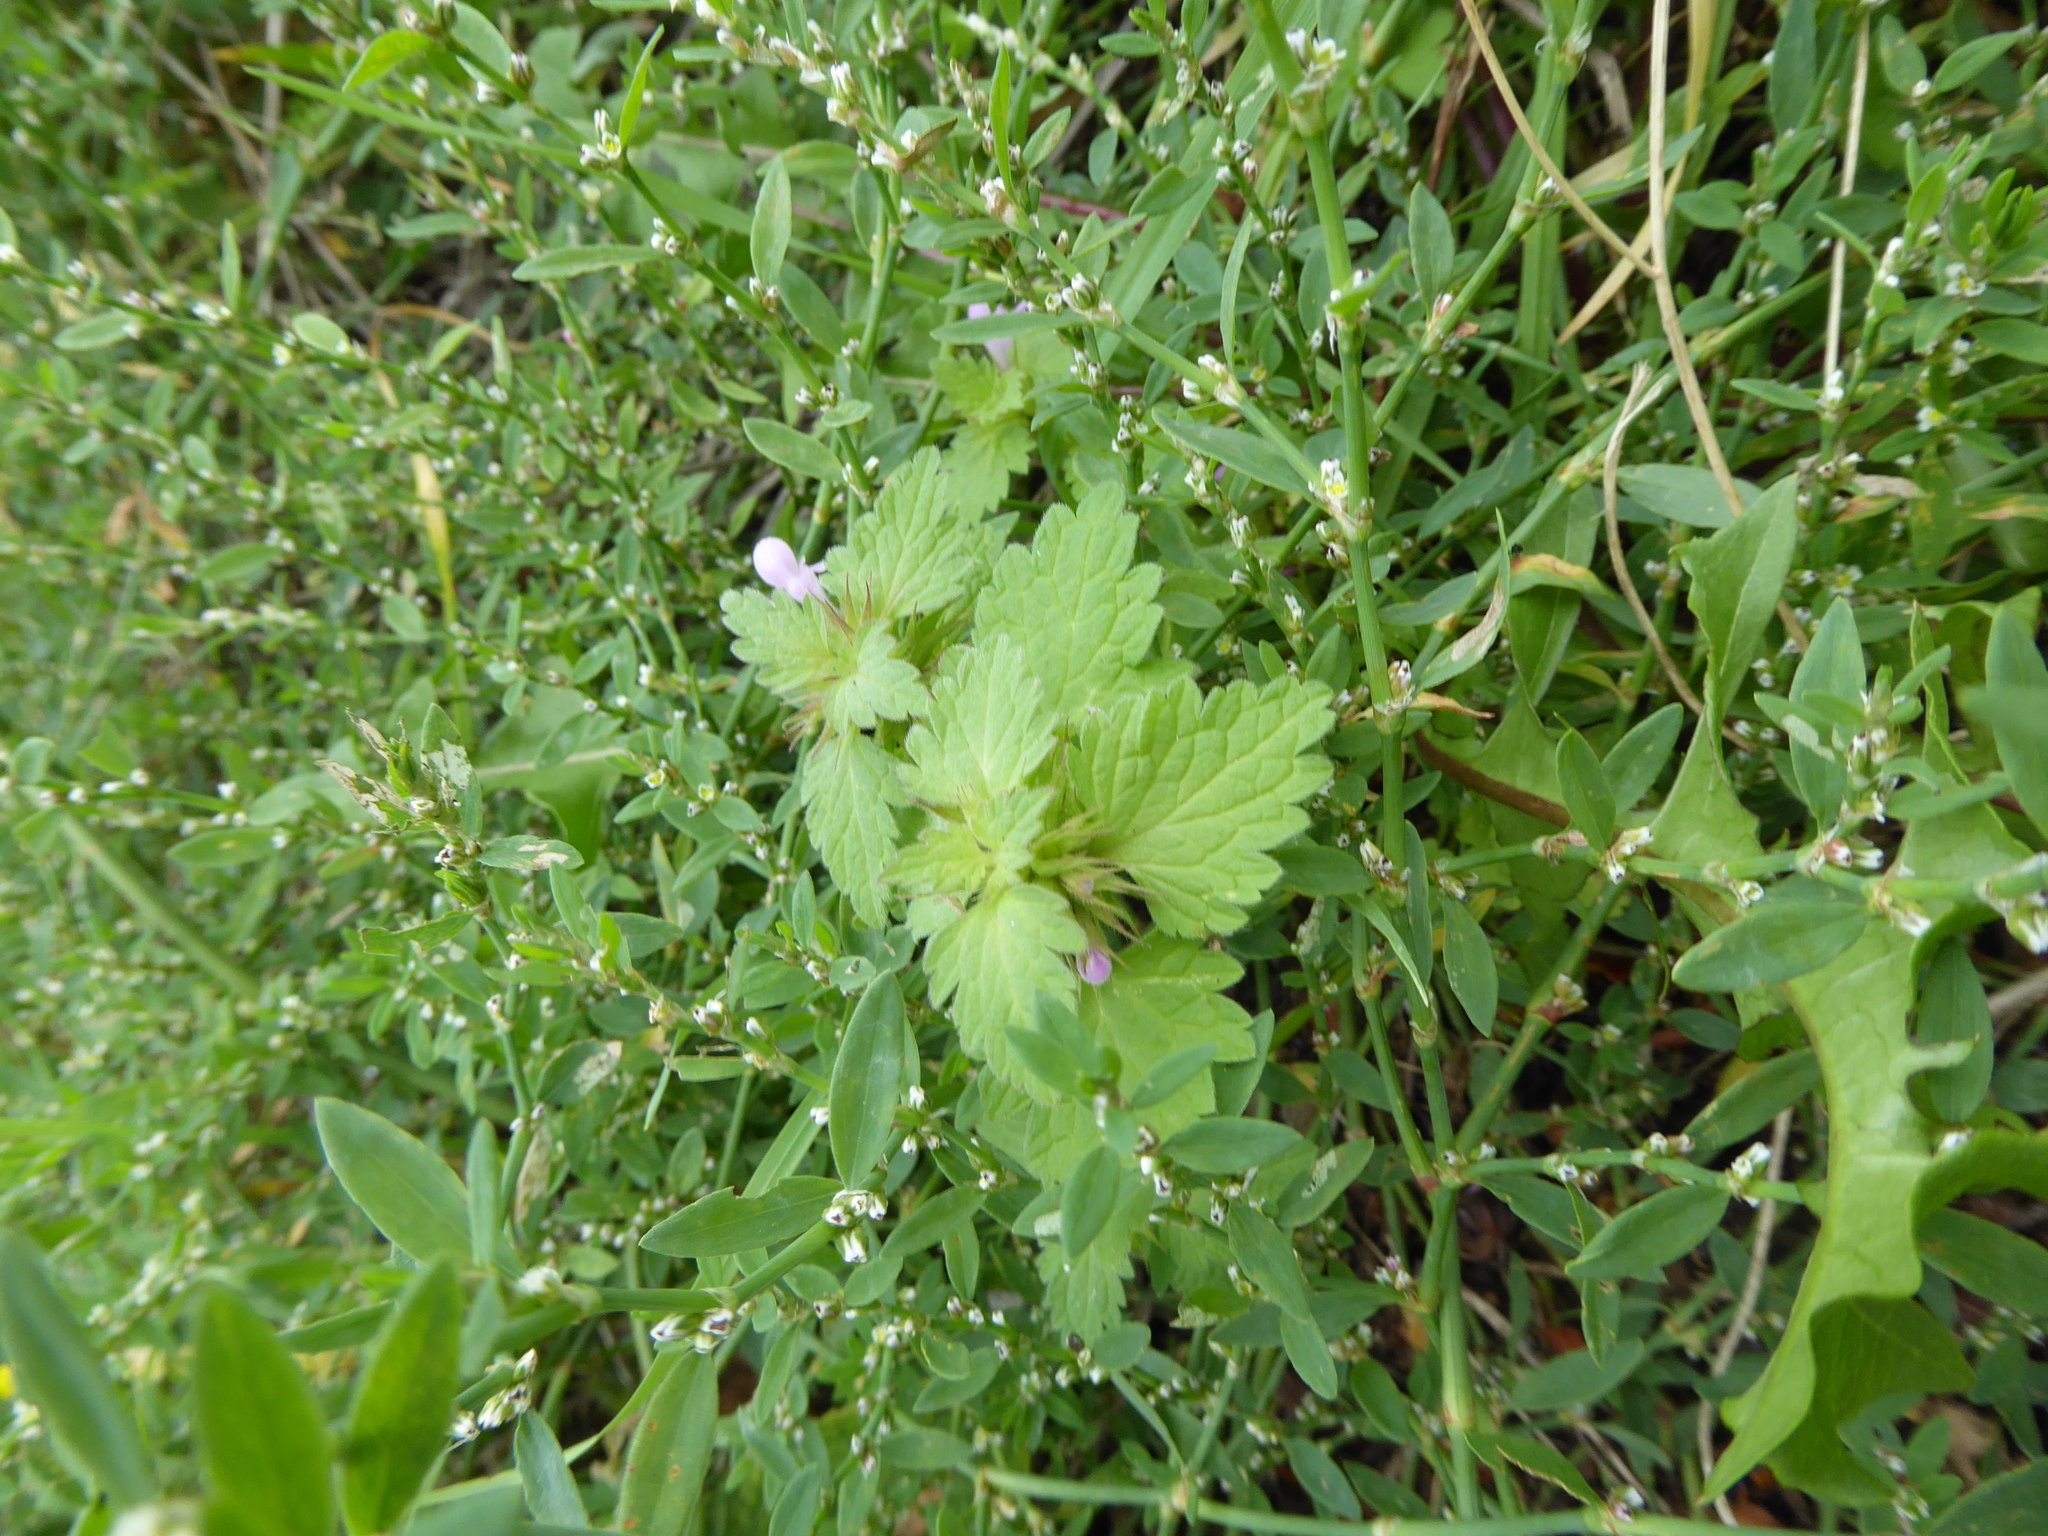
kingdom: Plantae
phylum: Tracheophyta
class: Magnoliopsida
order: Lamiales
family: Lamiaceae
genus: Lamium
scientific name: Lamium purpureum
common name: Red dead-nettle
